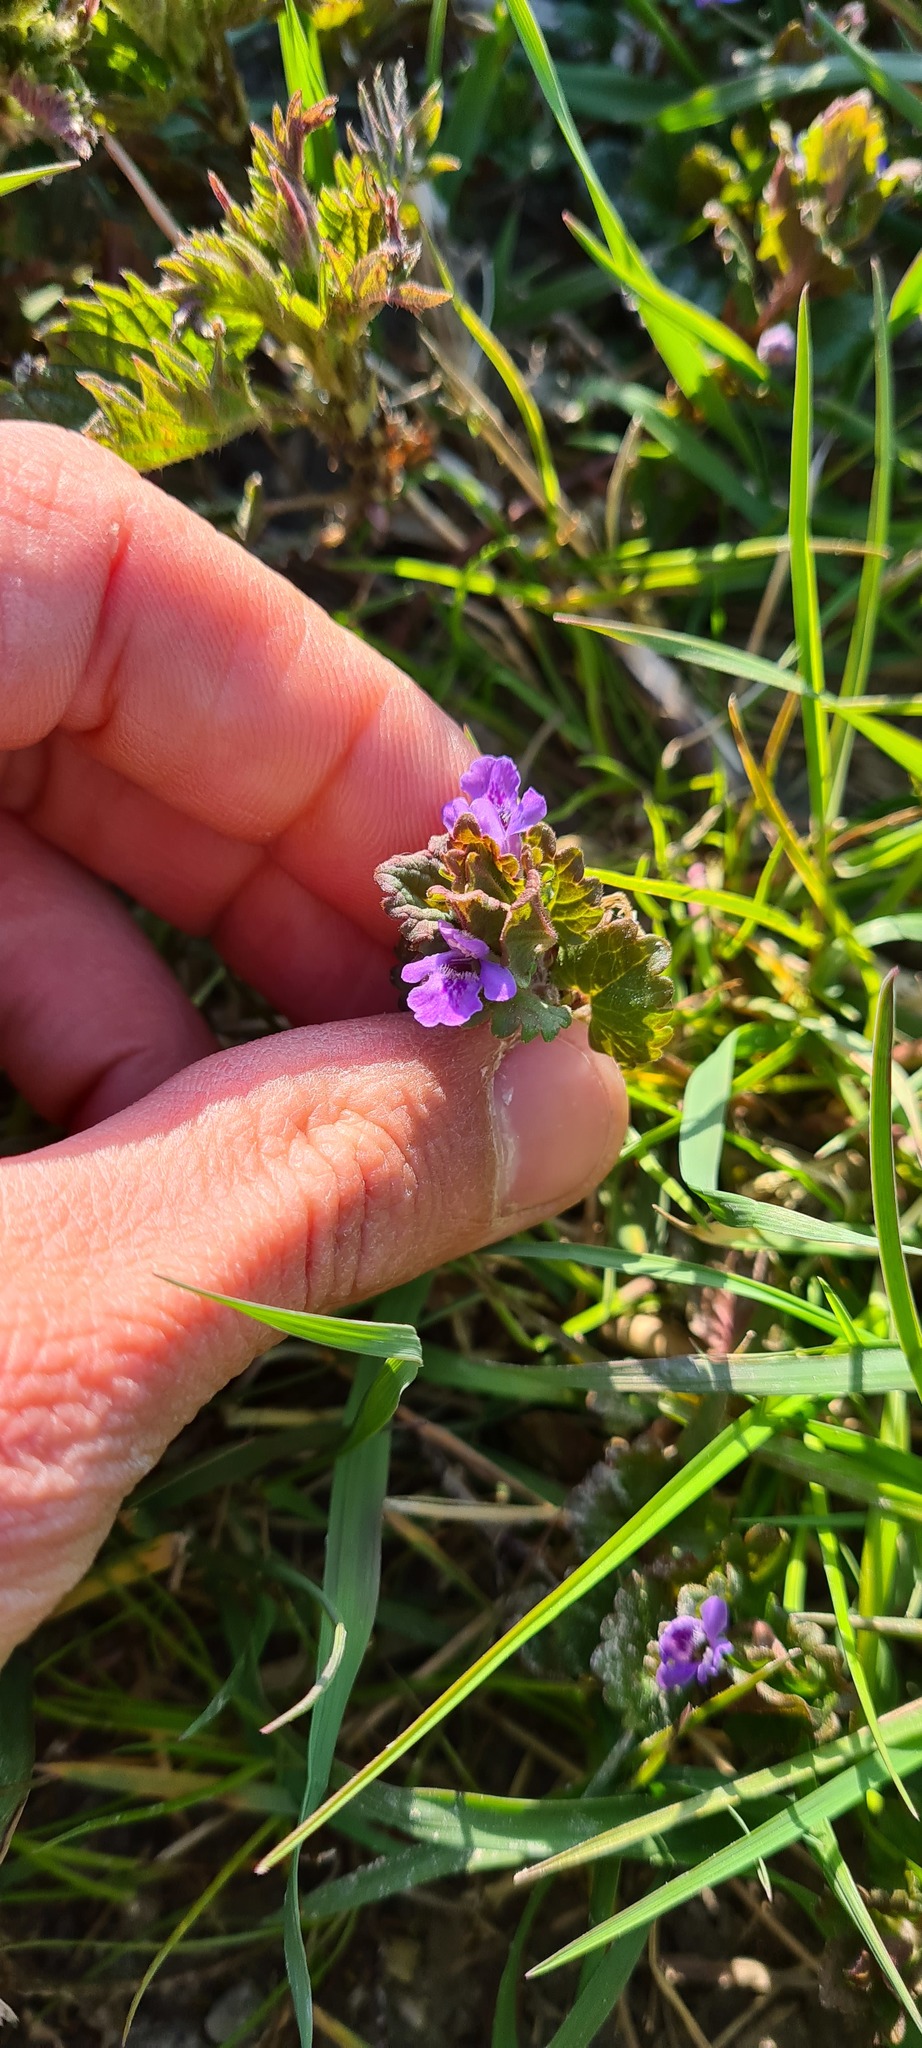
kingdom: Plantae
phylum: Tracheophyta
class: Magnoliopsida
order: Lamiales
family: Lamiaceae
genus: Glechoma
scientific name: Glechoma hederacea
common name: Ground ivy
